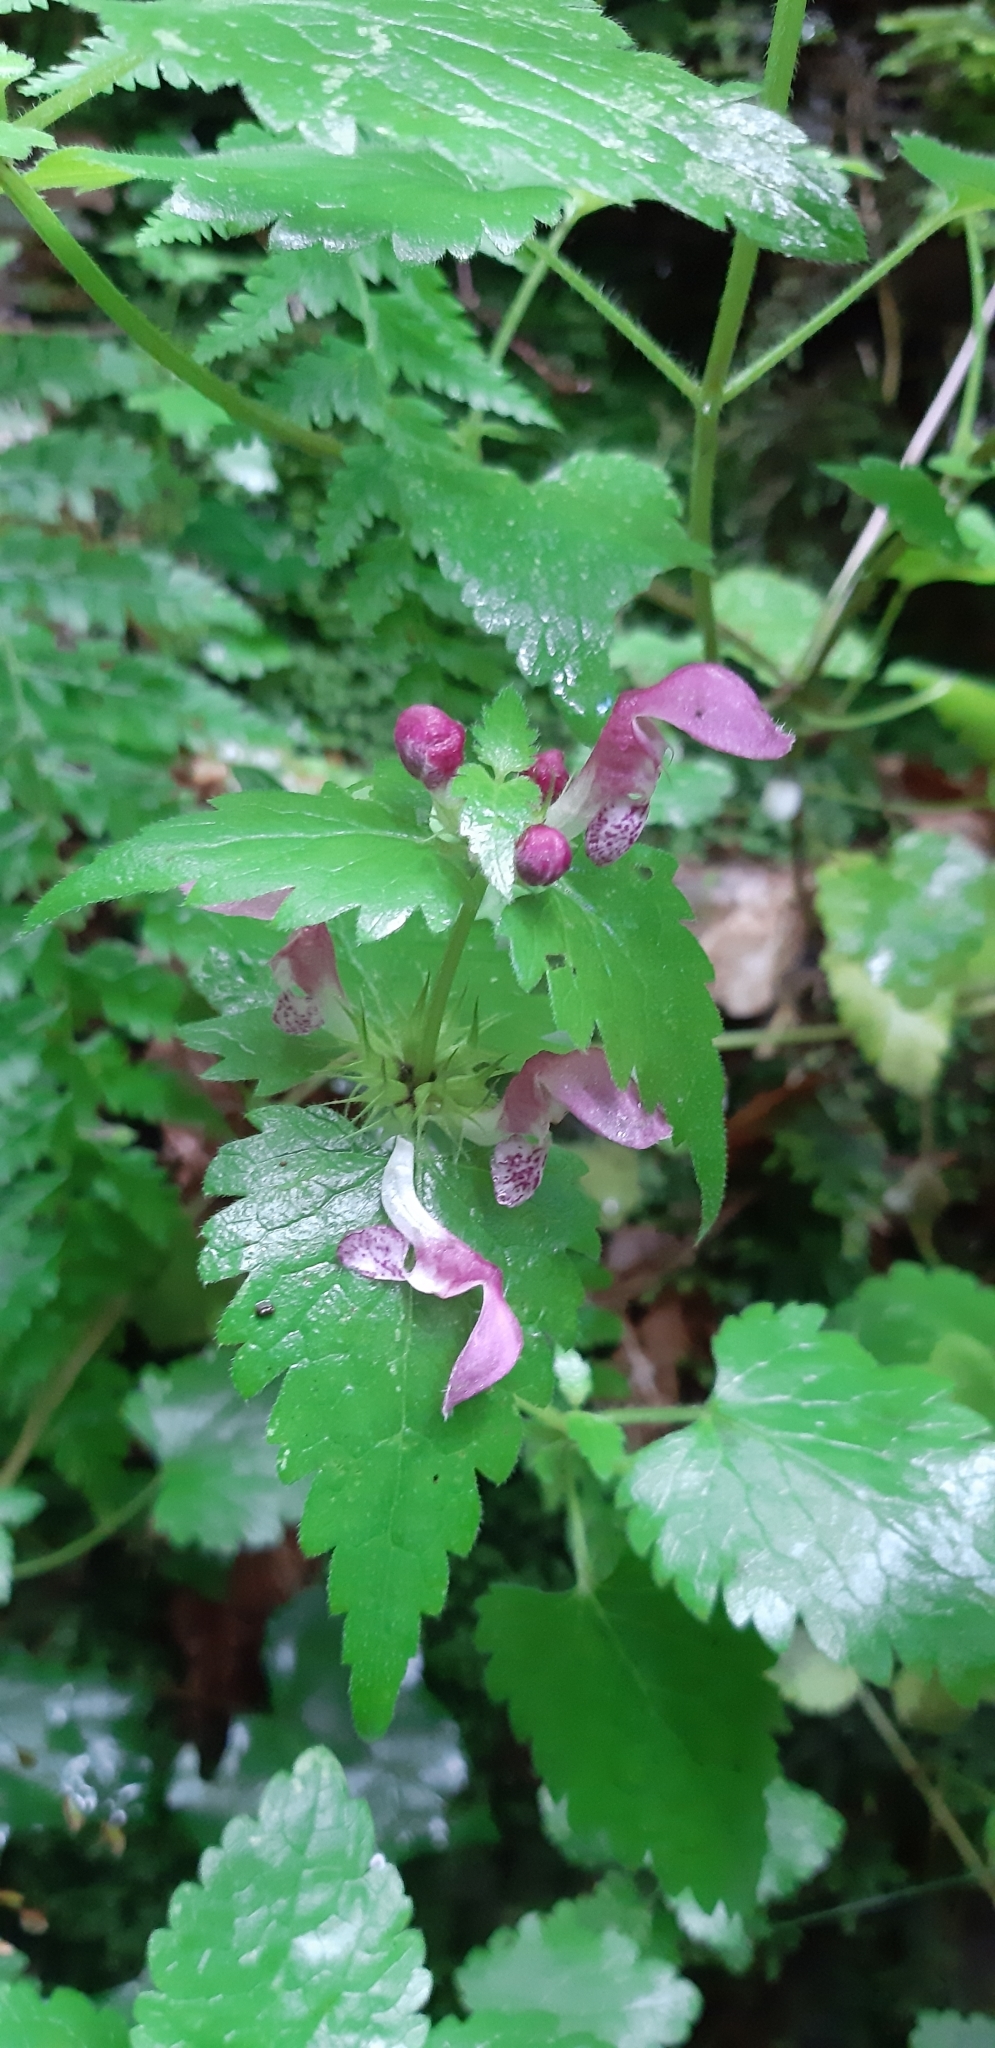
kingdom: Plantae
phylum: Tracheophyta
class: Magnoliopsida
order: Lamiales
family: Lamiaceae
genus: Lamium
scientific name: Lamium maculatum
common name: Spotted dead-nettle
